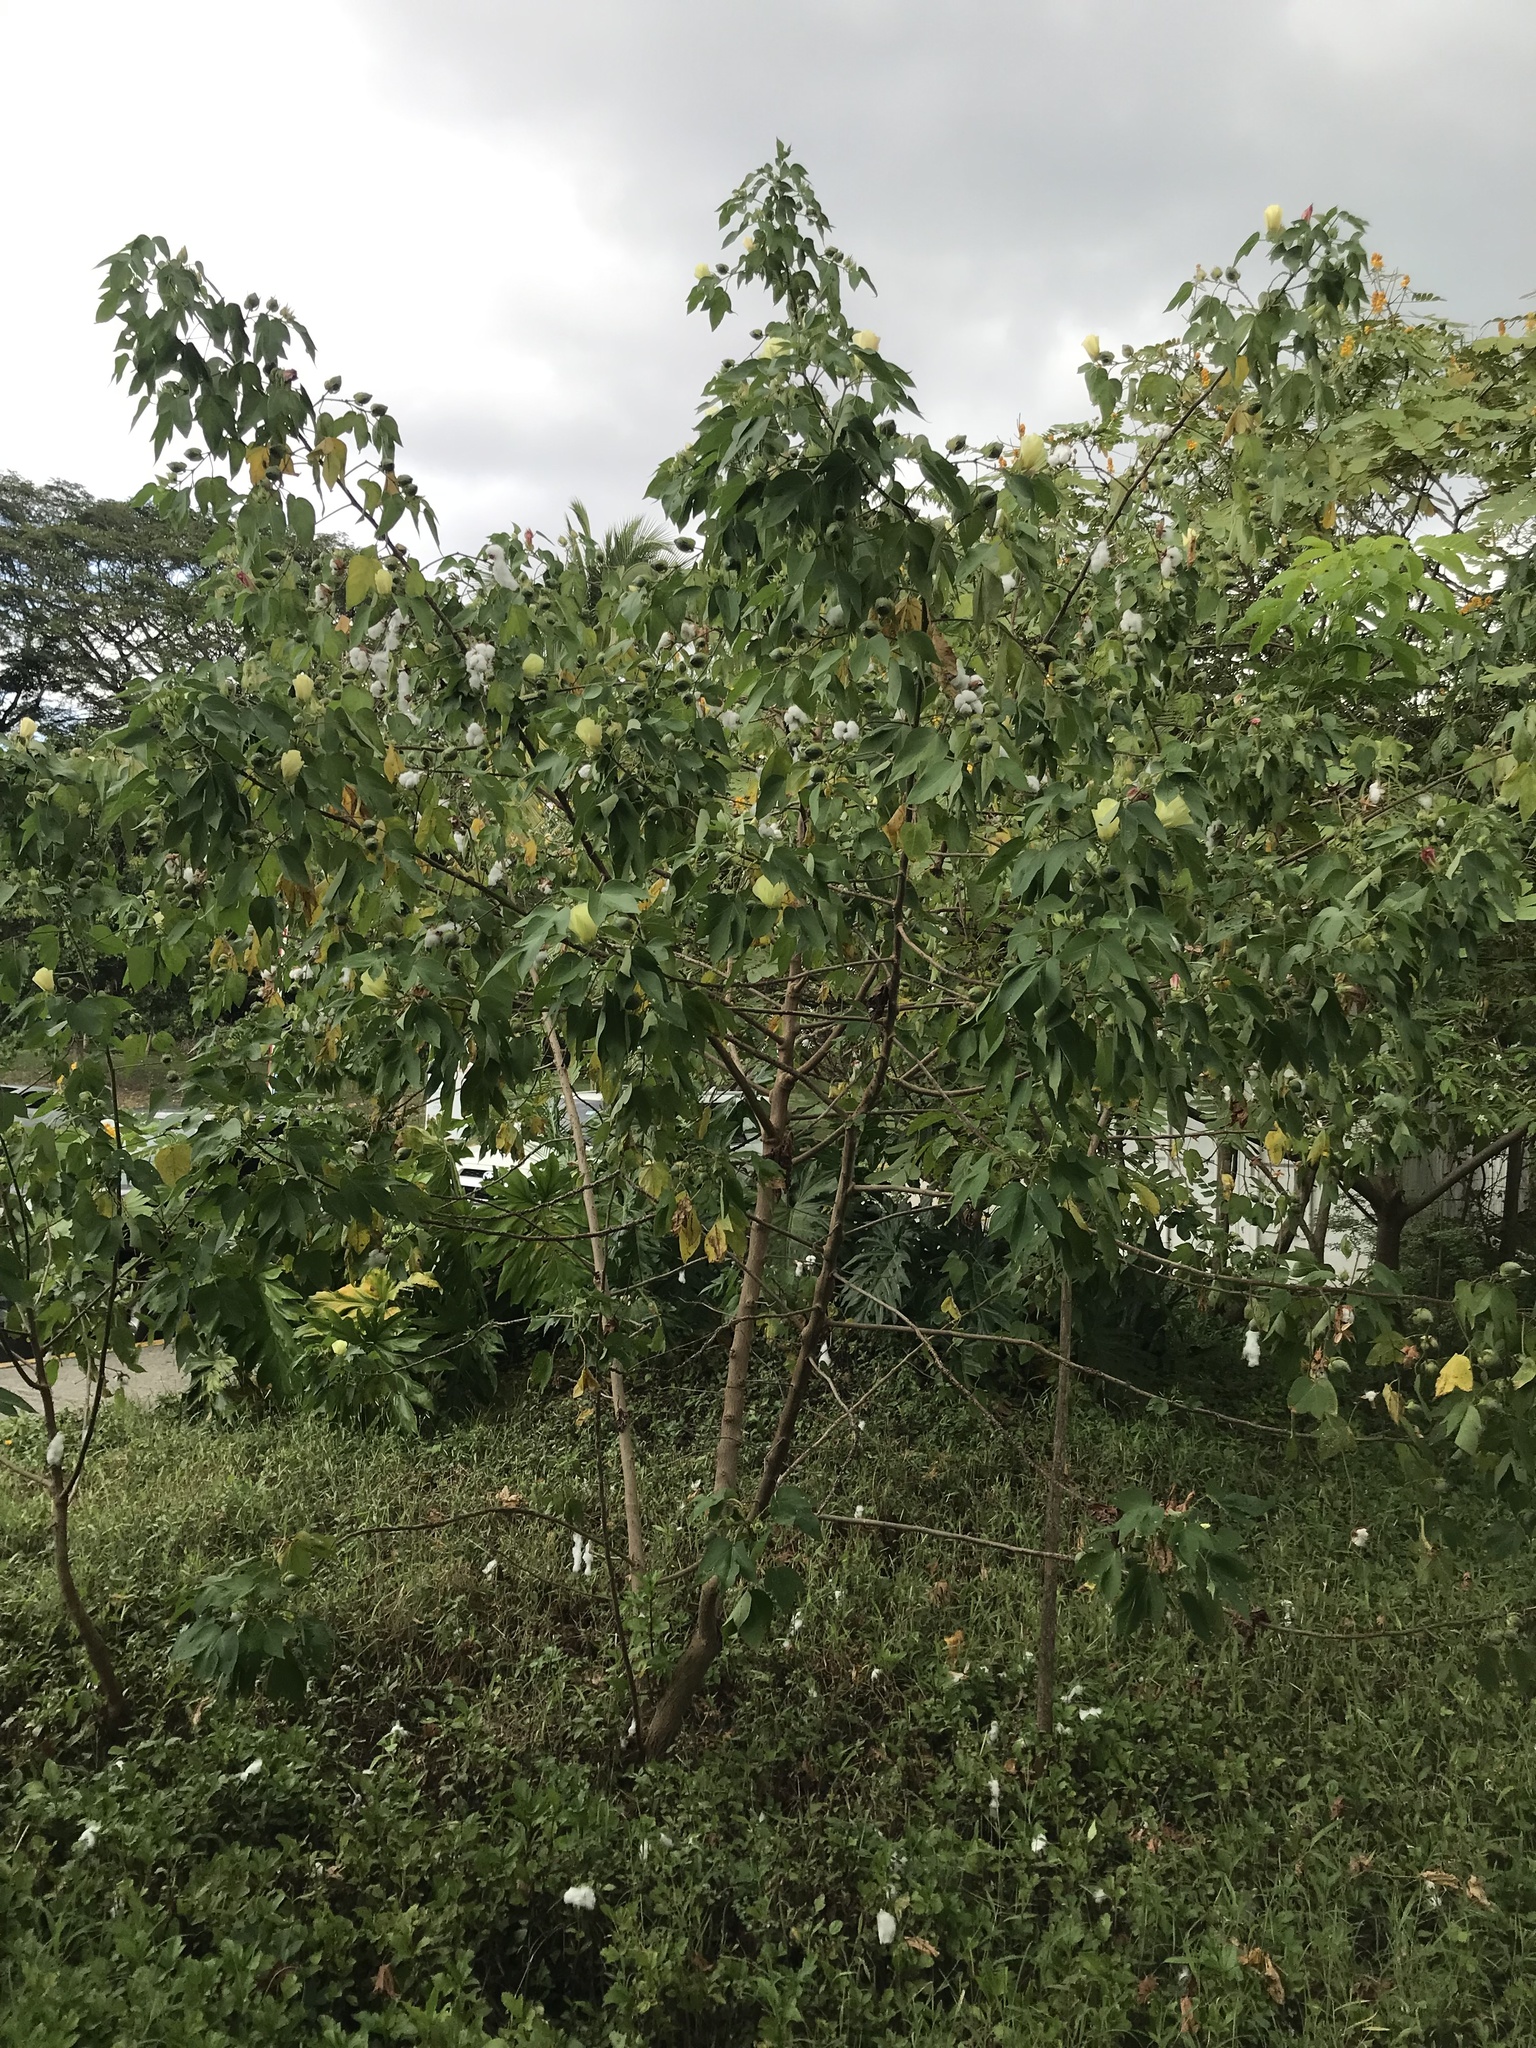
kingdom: Plantae
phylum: Tracheophyta
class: Magnoliopsida
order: Malvales
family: Malvaceae
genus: Gossypium
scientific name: Gossypium hirsutum
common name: Cotton
